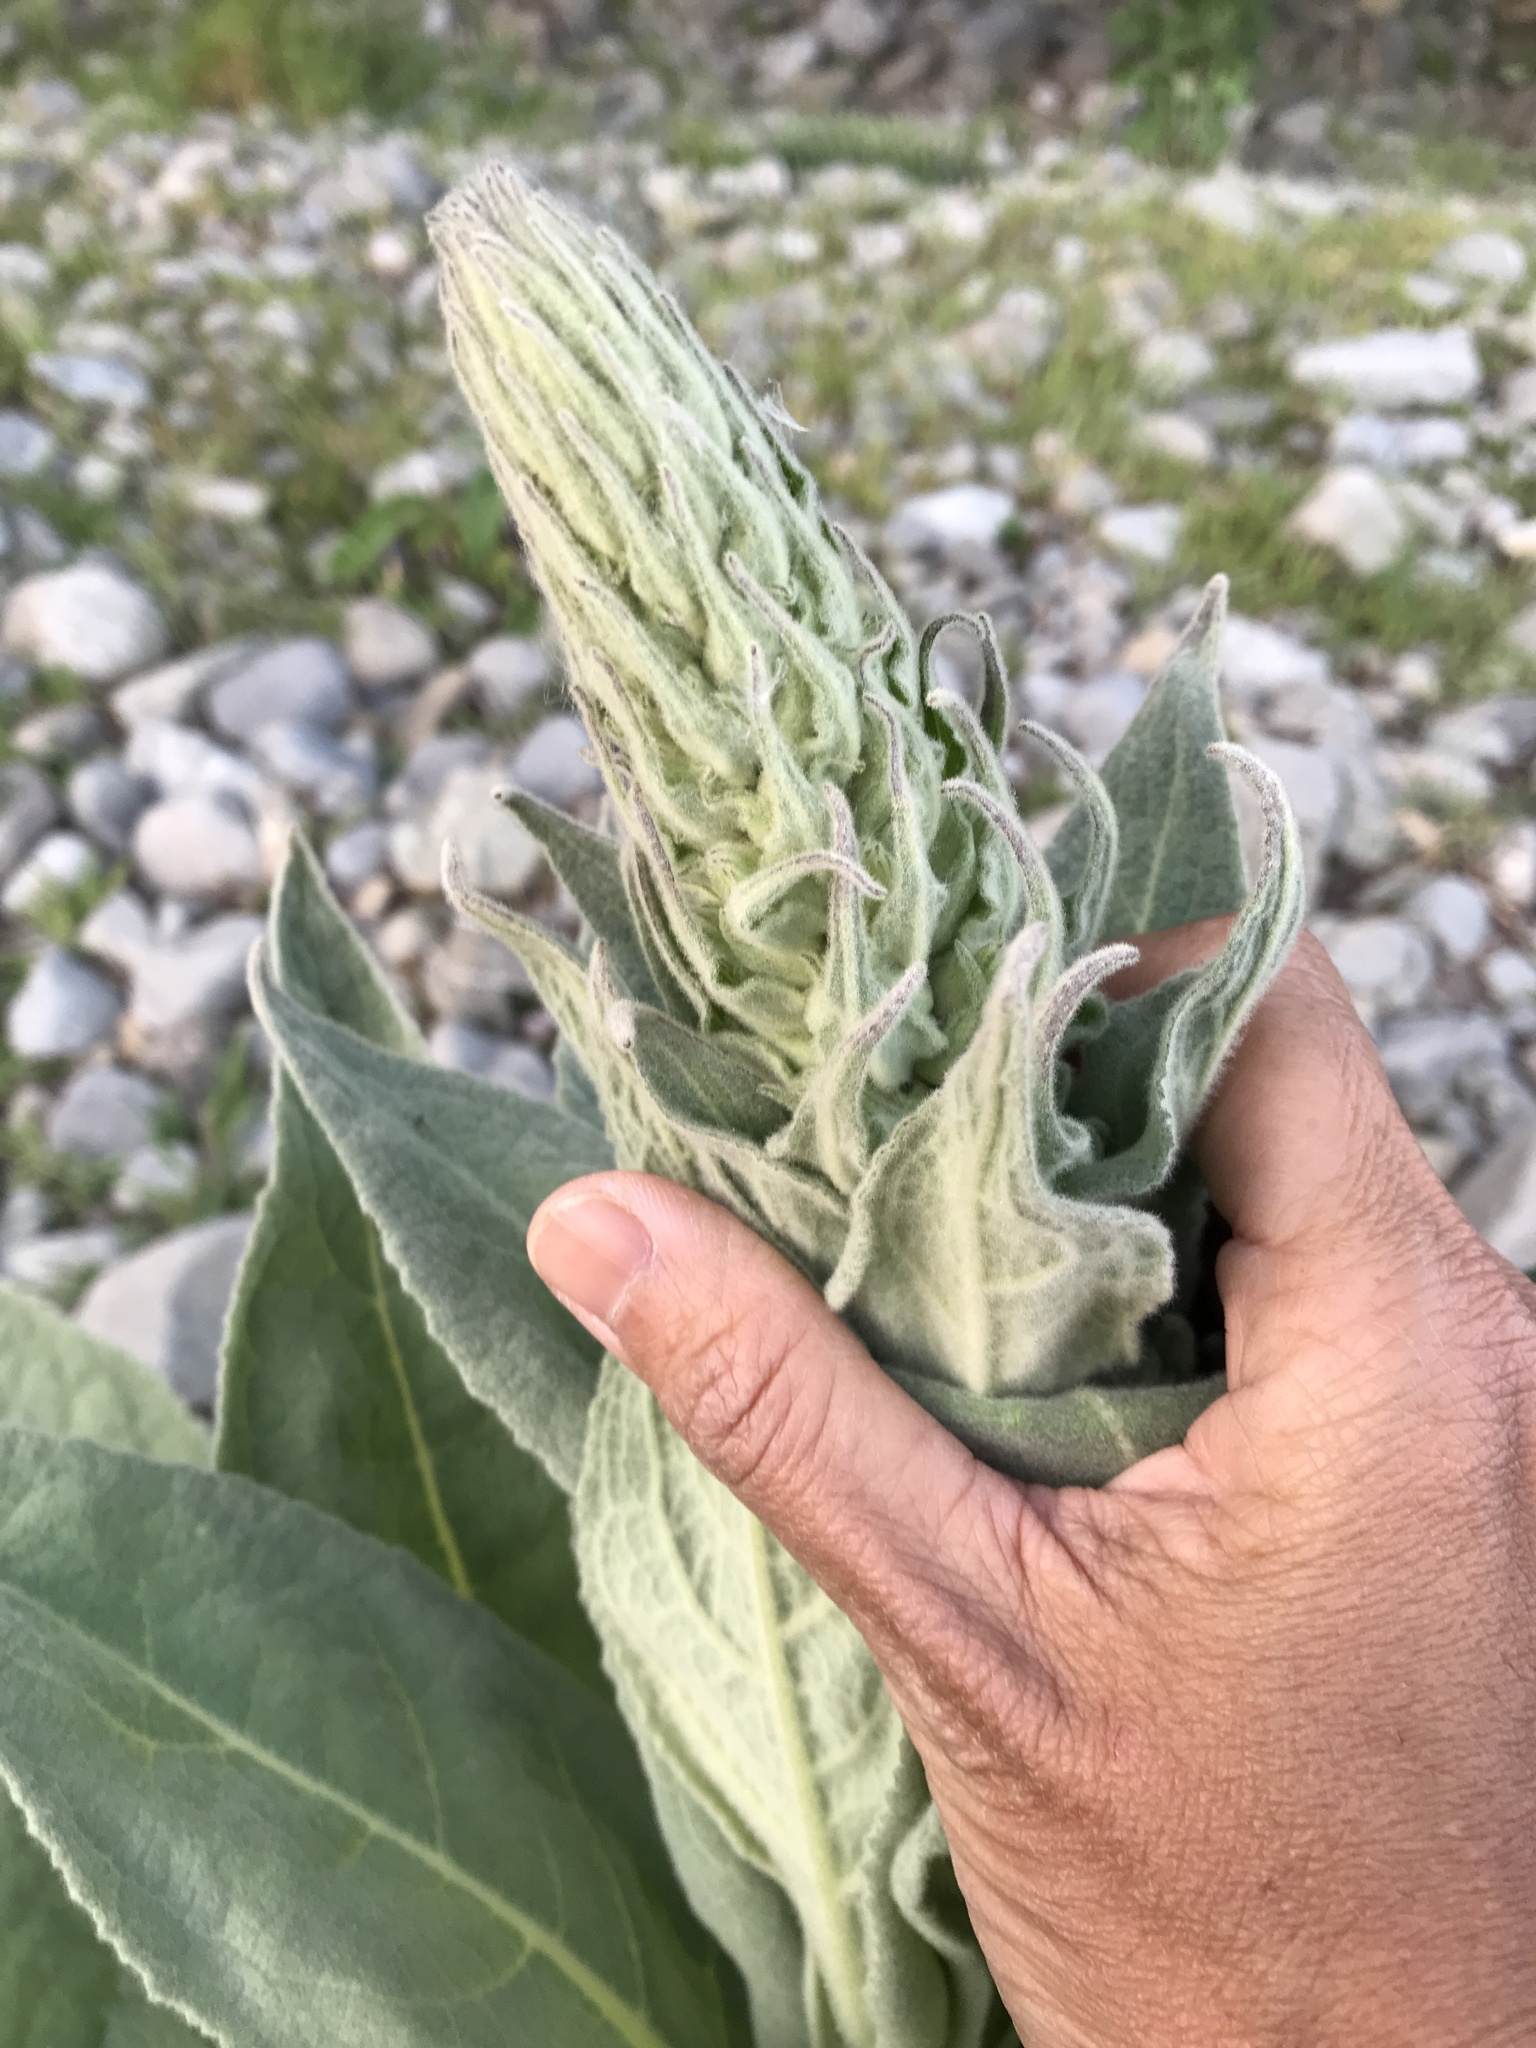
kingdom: Plantae
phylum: Tracheophyta
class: Magnoliopsida
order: Lamiales
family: Scrophulariaceae
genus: Verbascum
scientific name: Verbascum thapsus
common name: Common mullein
